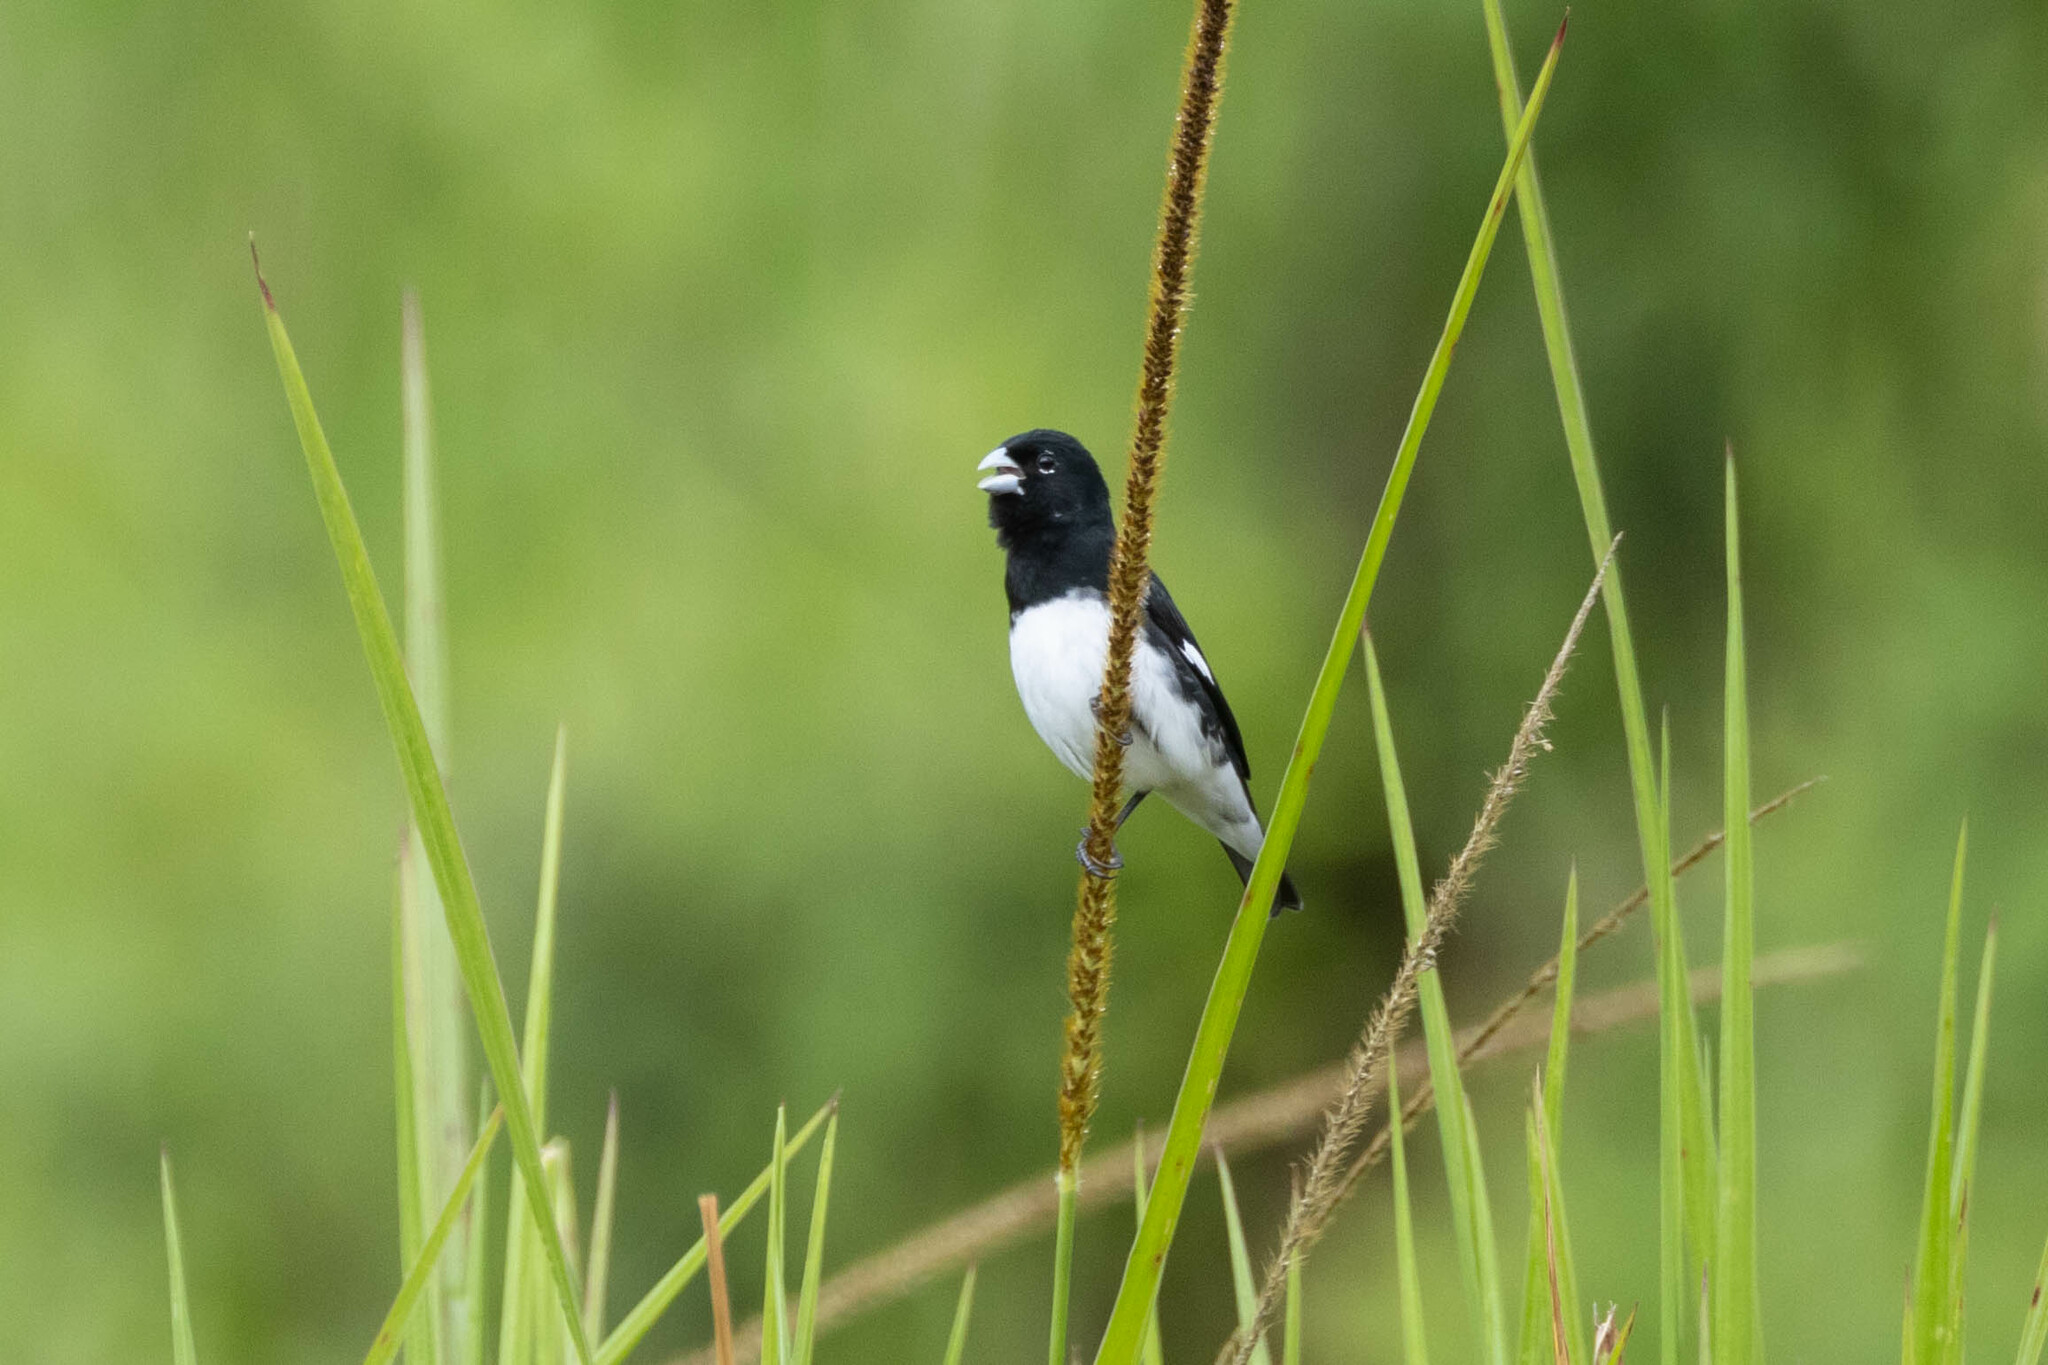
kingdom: Animalia
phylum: Chordata
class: Aves
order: Passeriformes
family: Thraupidae
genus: Sporophila
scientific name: Sporophila luctuosa
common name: Black-and-white seedeater
